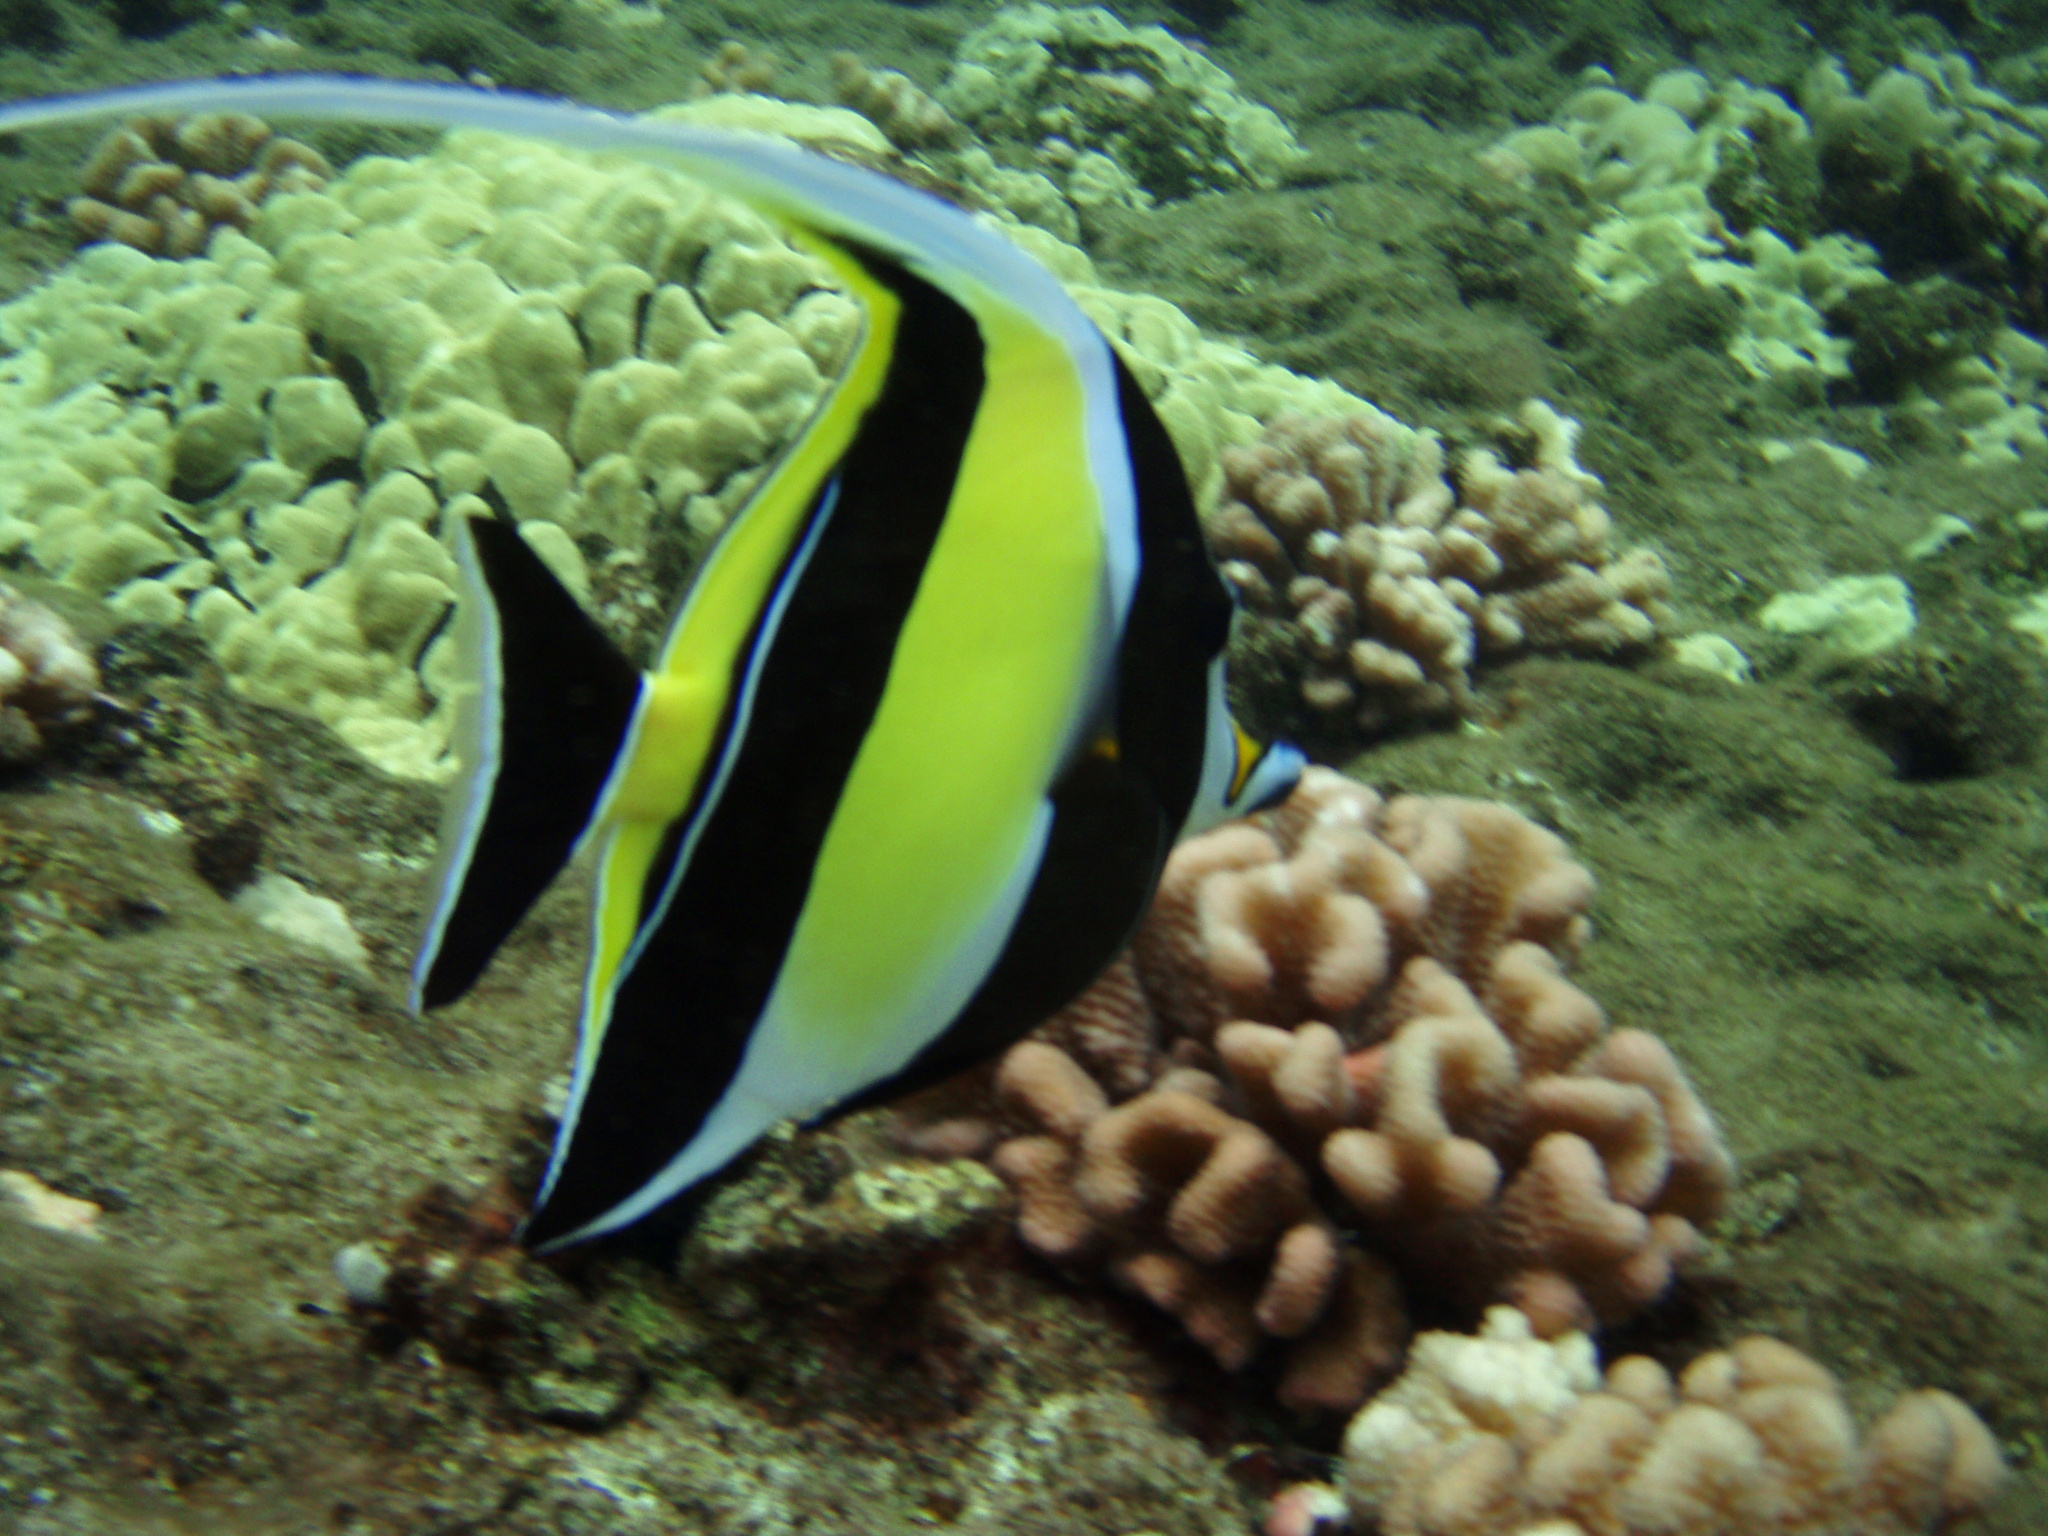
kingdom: Animalia
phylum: Chordata
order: Perciformes
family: Zanclidae
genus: Zanclus
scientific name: Zanclus cornutus
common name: Moorish idol
